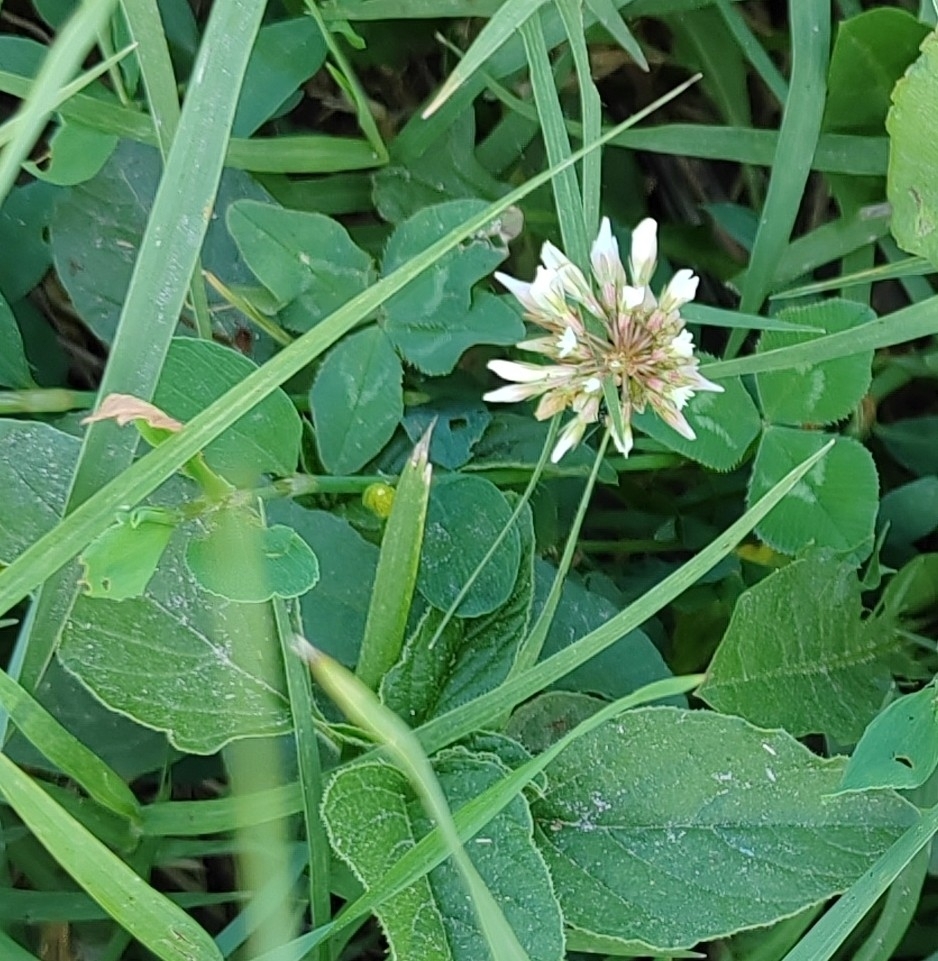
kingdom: Plantae
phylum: Tracheophyta
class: Magnoliopsida
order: Fabales
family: Fabaceae
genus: Trifolium
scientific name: Trifolium repens
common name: White clover
